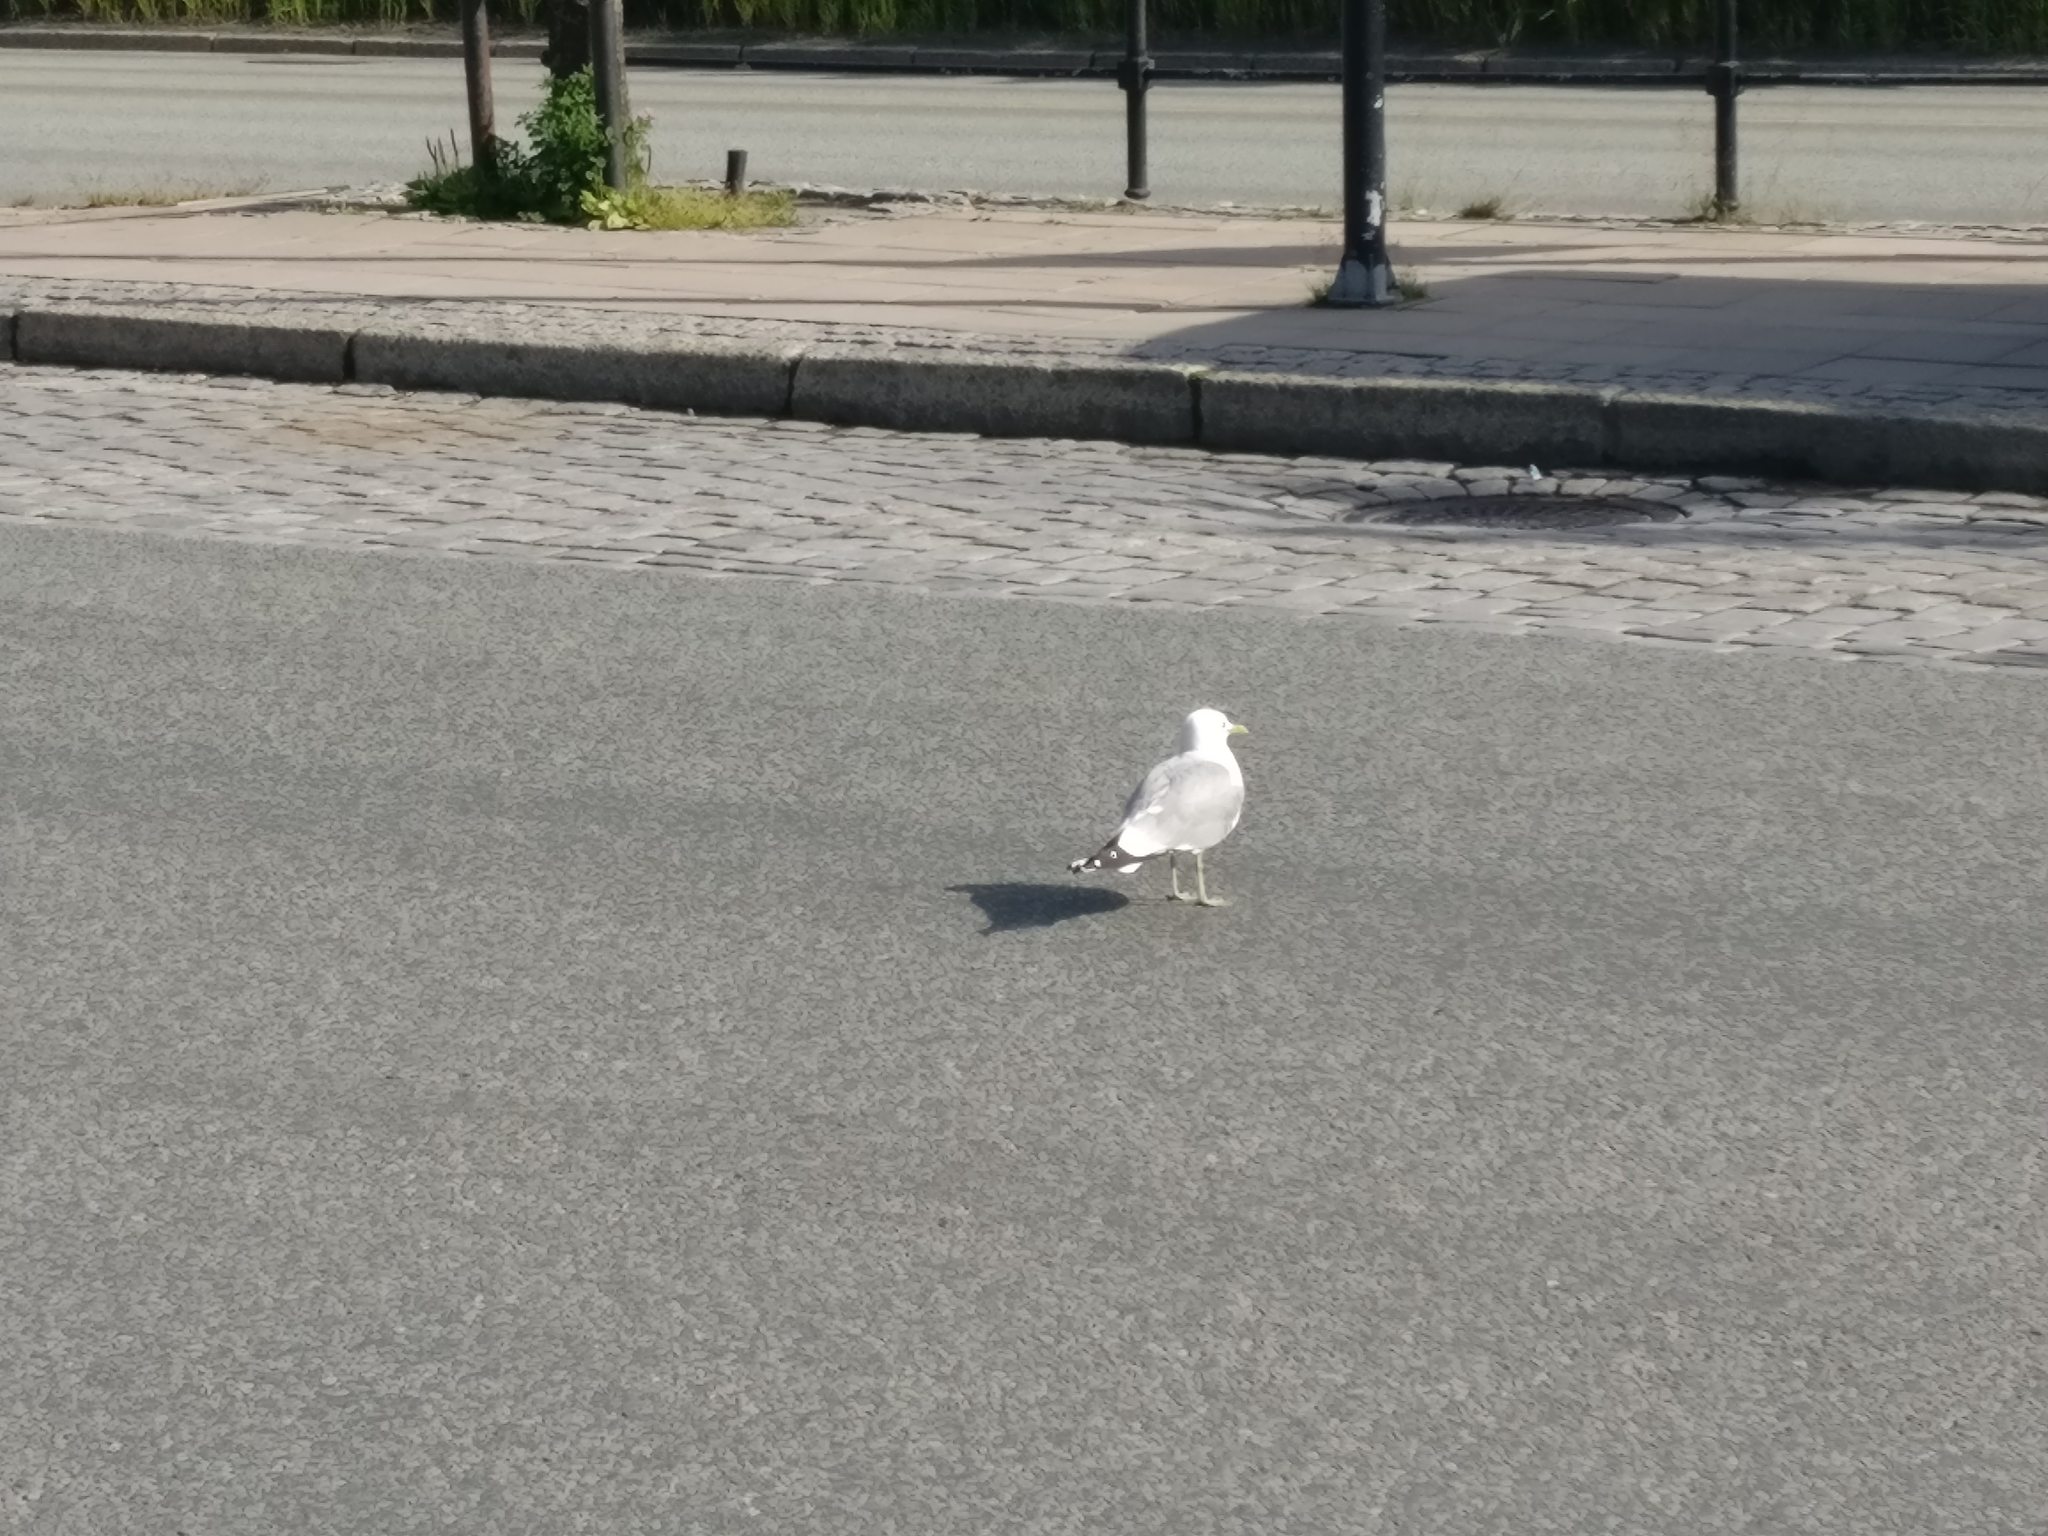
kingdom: Animalia
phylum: Chordata
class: Aves
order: Charadriiformes
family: Laridae
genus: Larus
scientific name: Larus canus
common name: Mew gull
